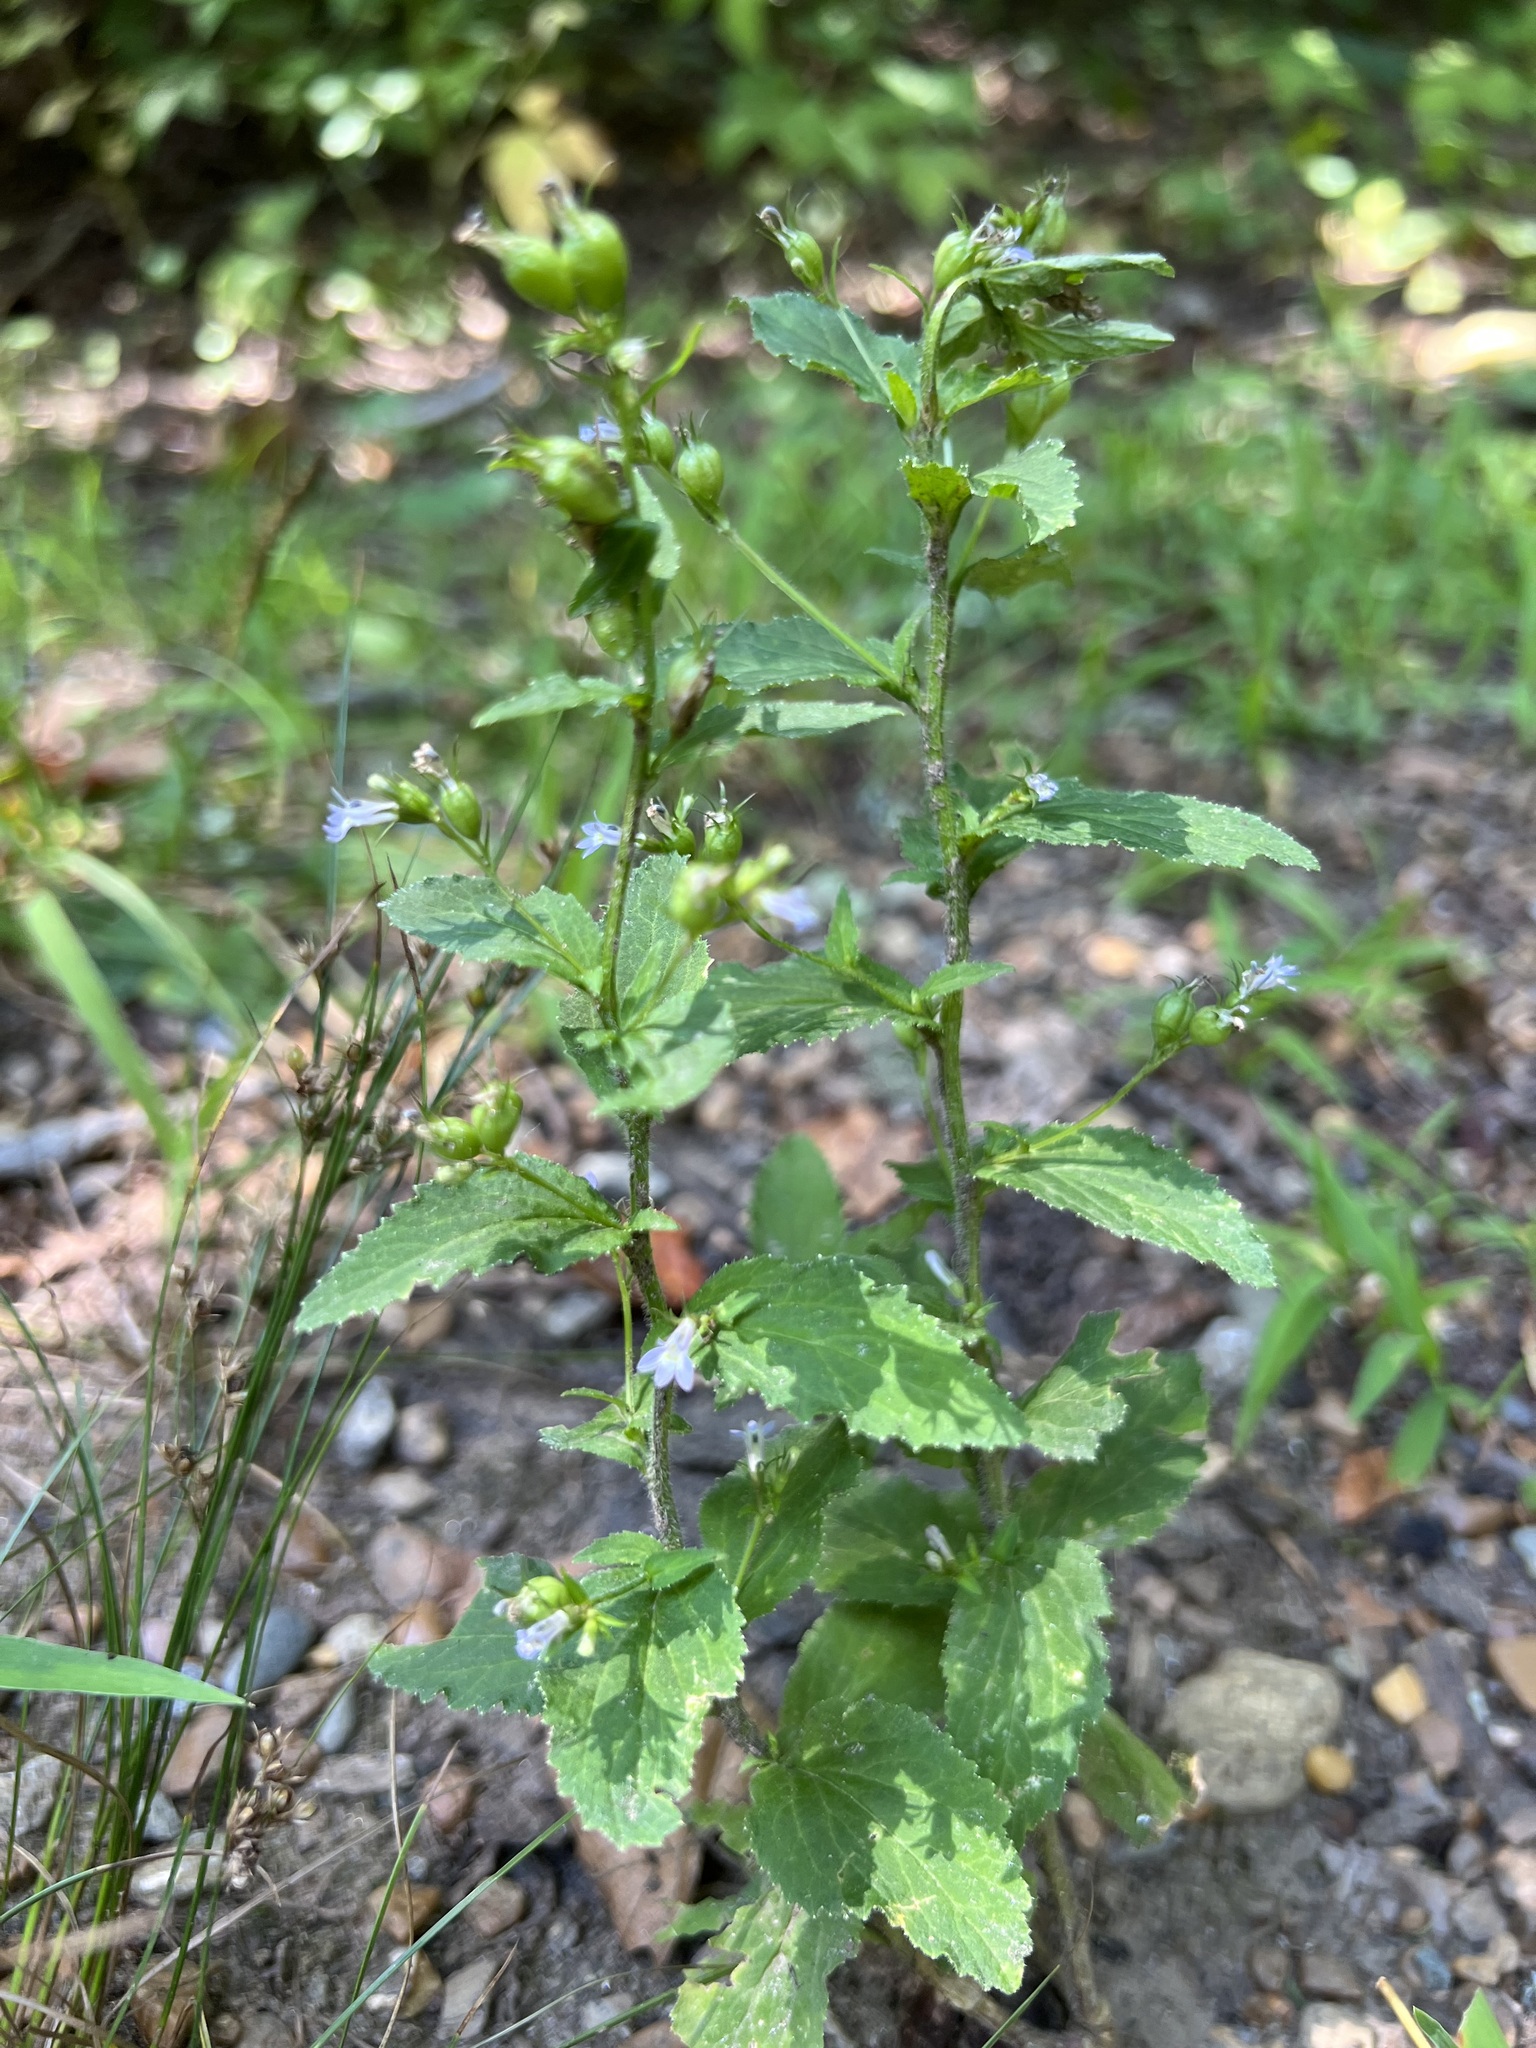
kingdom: Plantae
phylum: Tracheophyta
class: Magnoliopsida
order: Asterales
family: Campanulaceae
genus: Lobelia
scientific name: Lobelia inflata
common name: Indian tobacco
